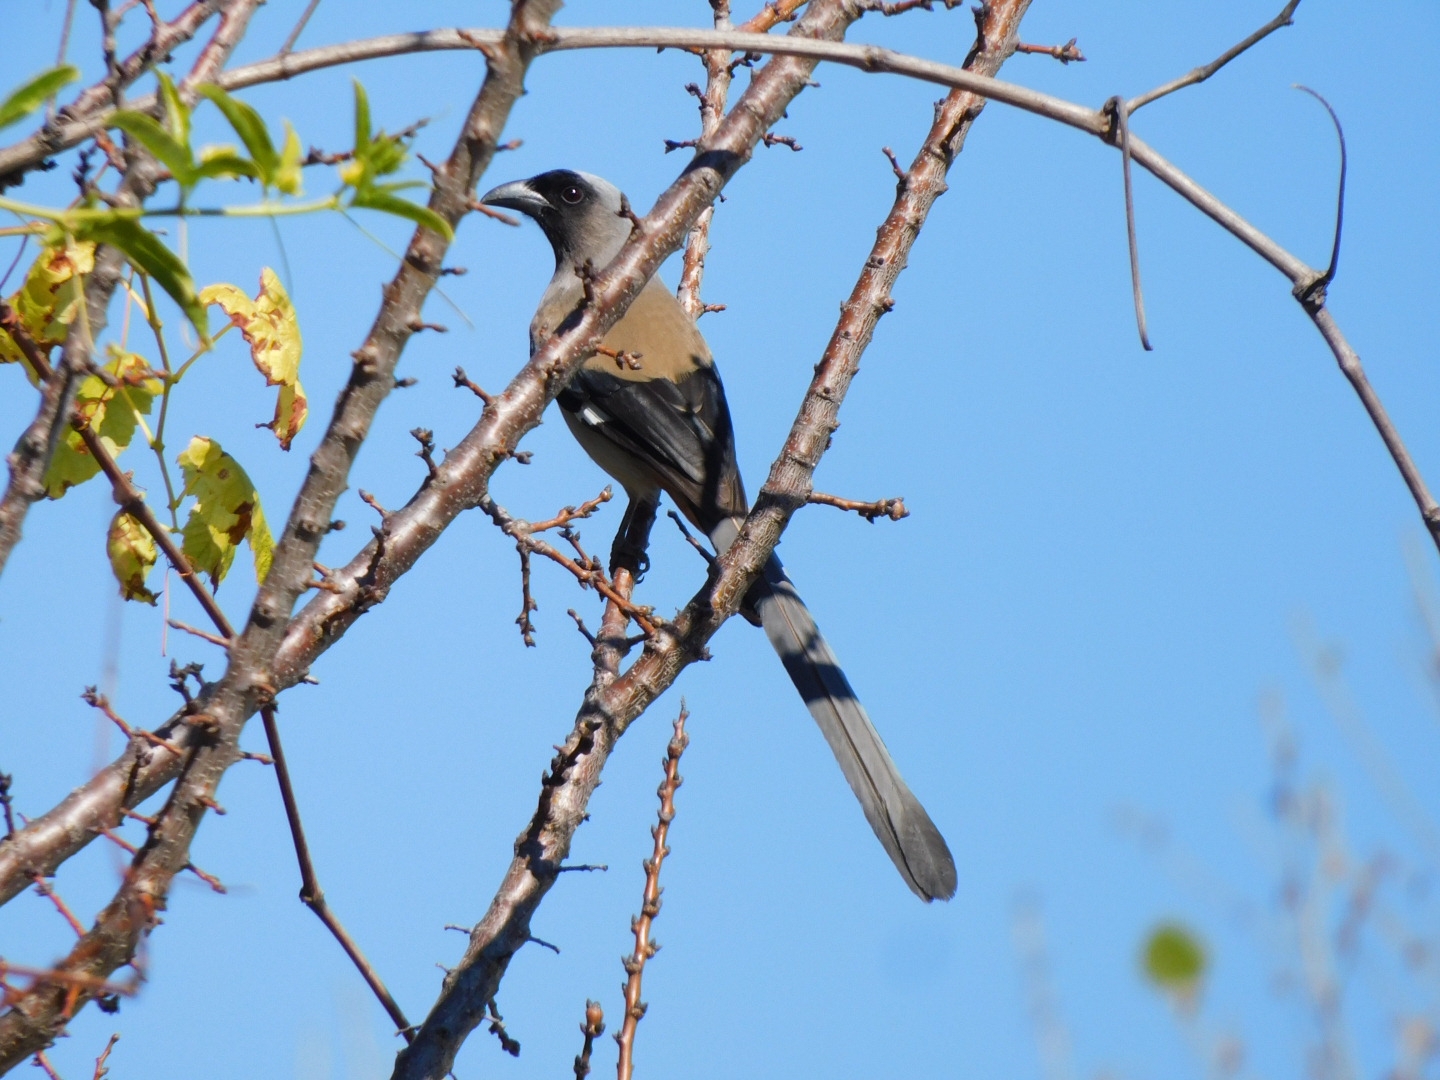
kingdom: Animalia
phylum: Chordata
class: Aves
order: Passeriformes
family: Corvidae
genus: Dendrocitta
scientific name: Dendrocitta formosae
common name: Grey treepie
